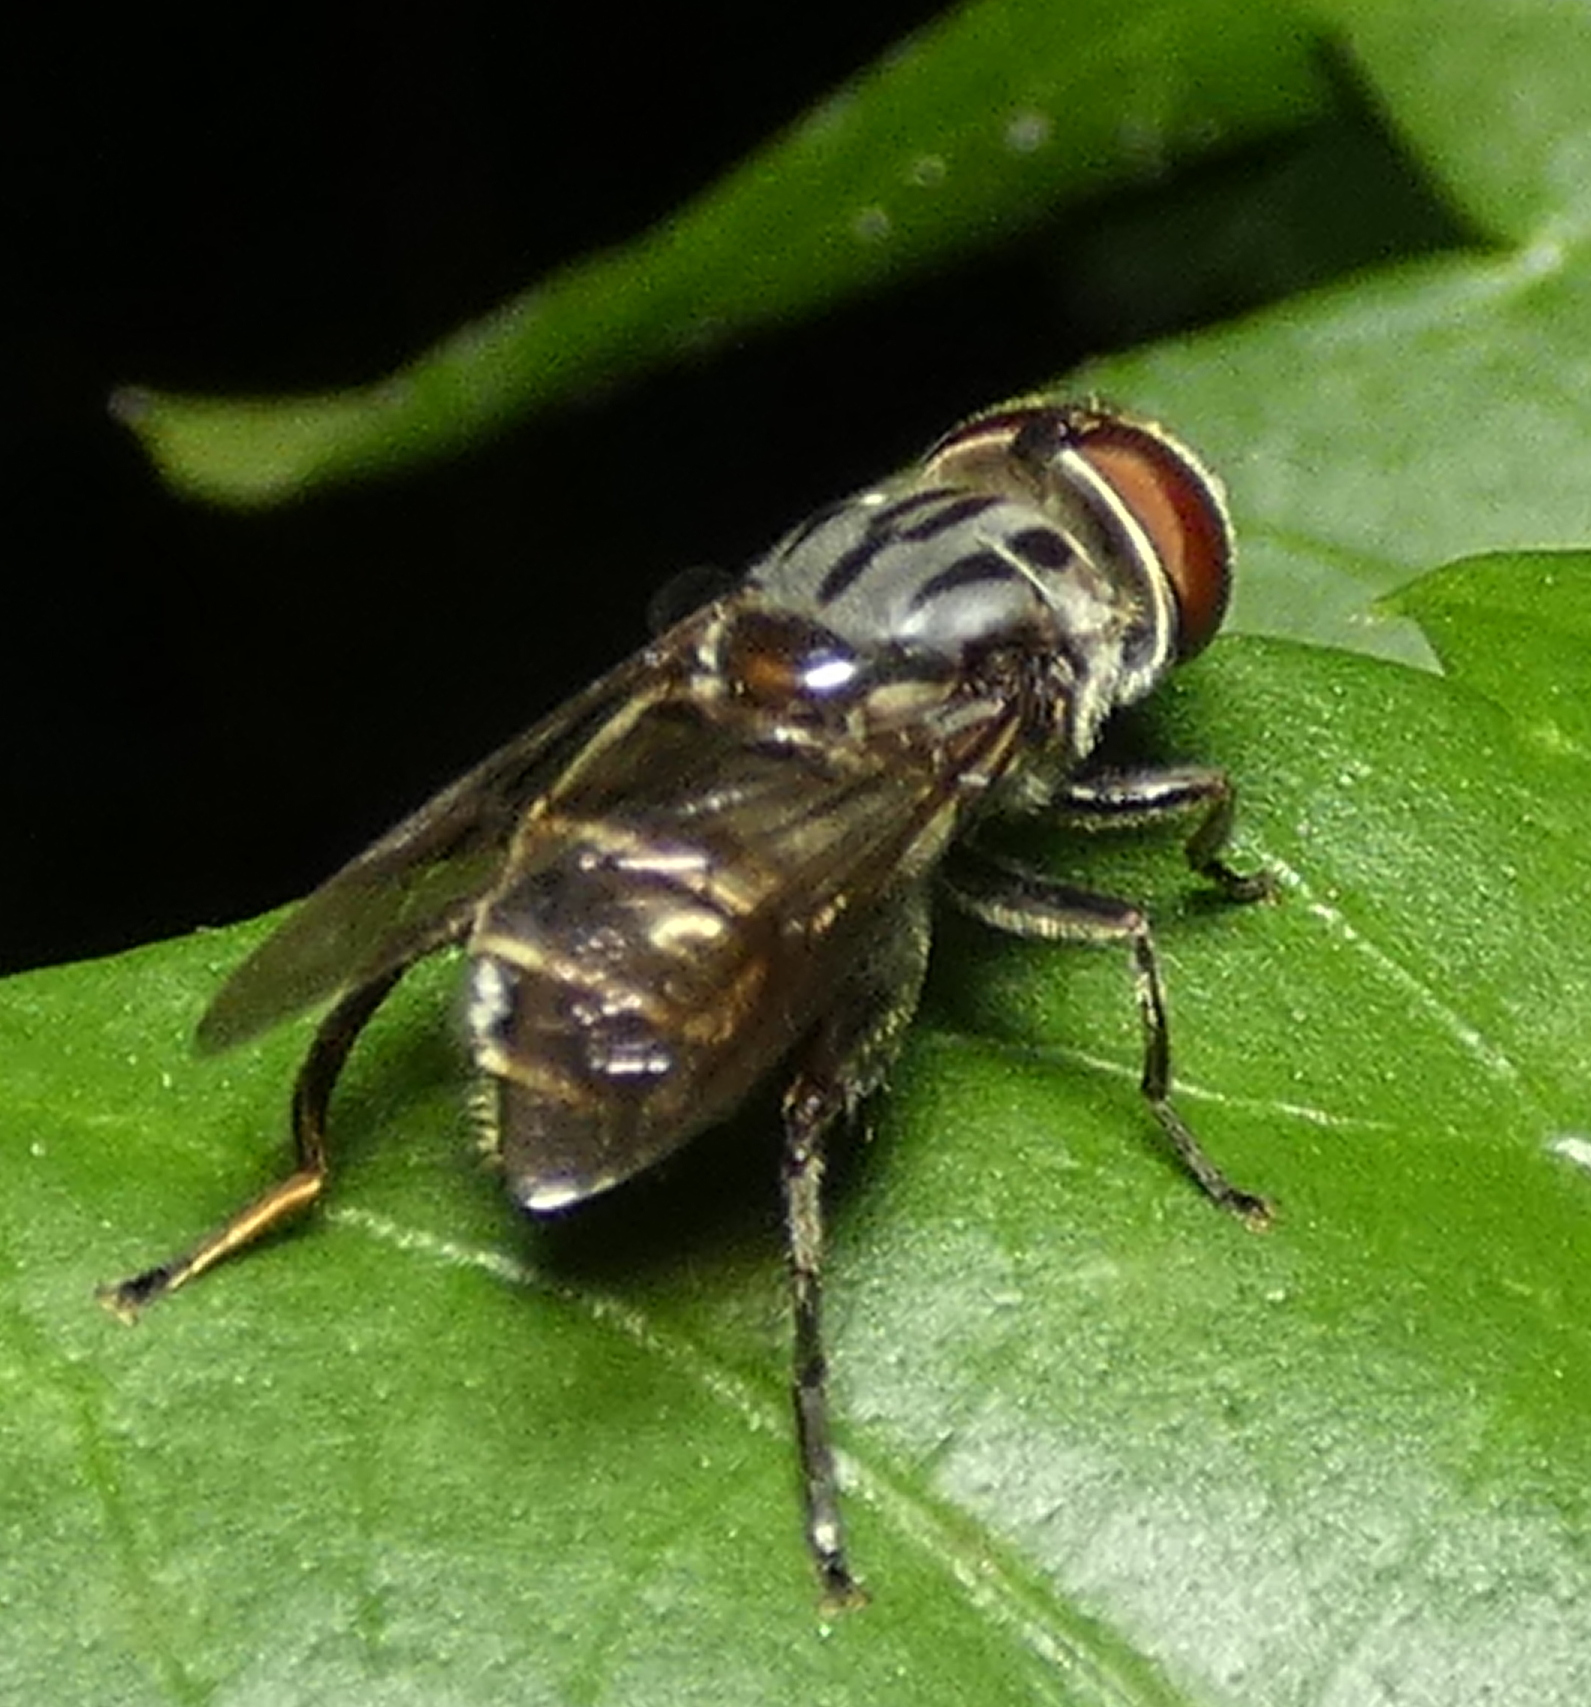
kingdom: Animalia
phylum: Arthropoda
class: Insecta
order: Diptera
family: Syrphidae
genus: Palpada
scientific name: Palpada furcata
